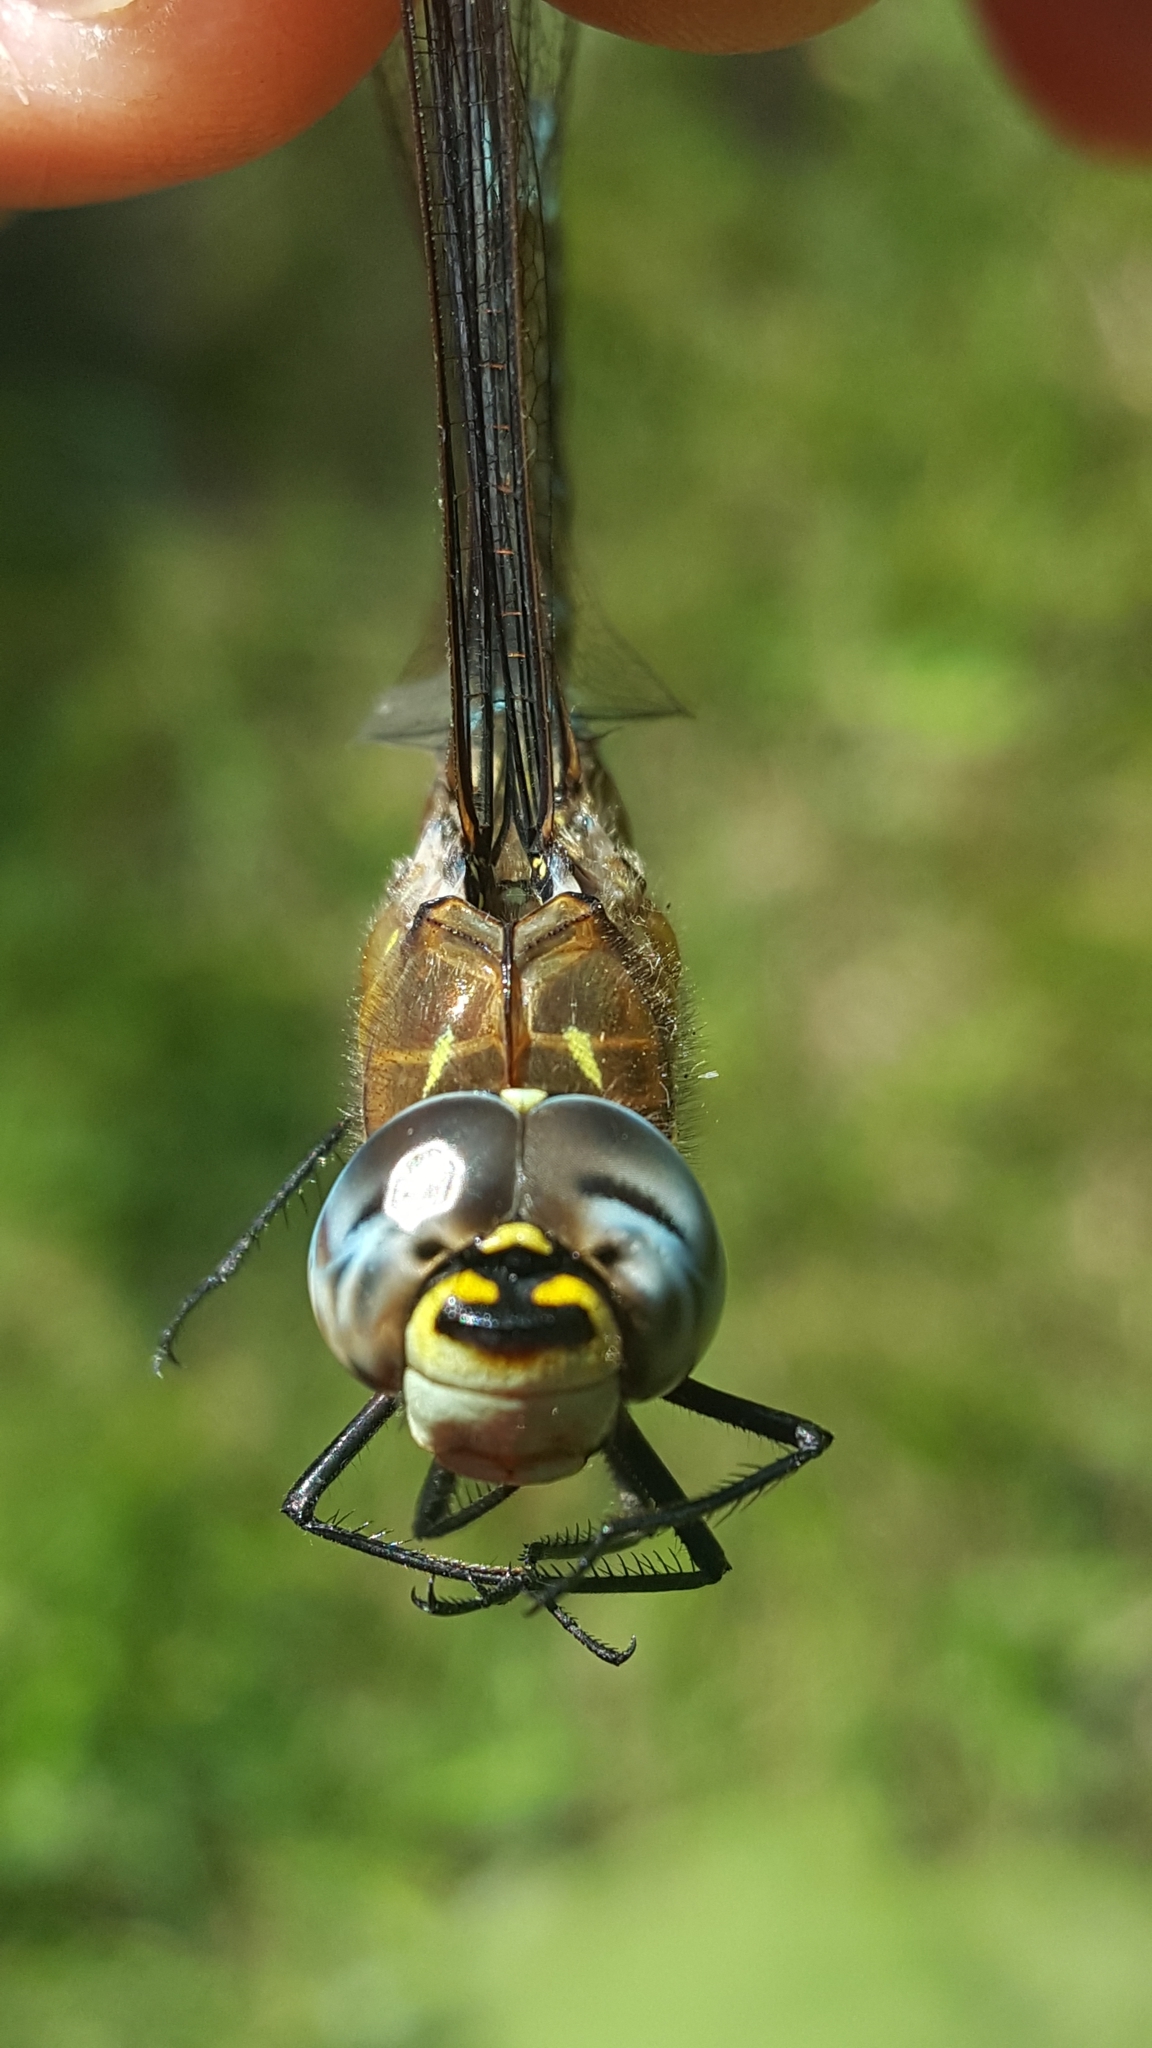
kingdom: Animalia
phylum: Arthropoda
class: Insecta
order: Odonata
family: Aeshnidae
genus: Aeshna
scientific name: Aeshna mixta
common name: Migrant hawker
